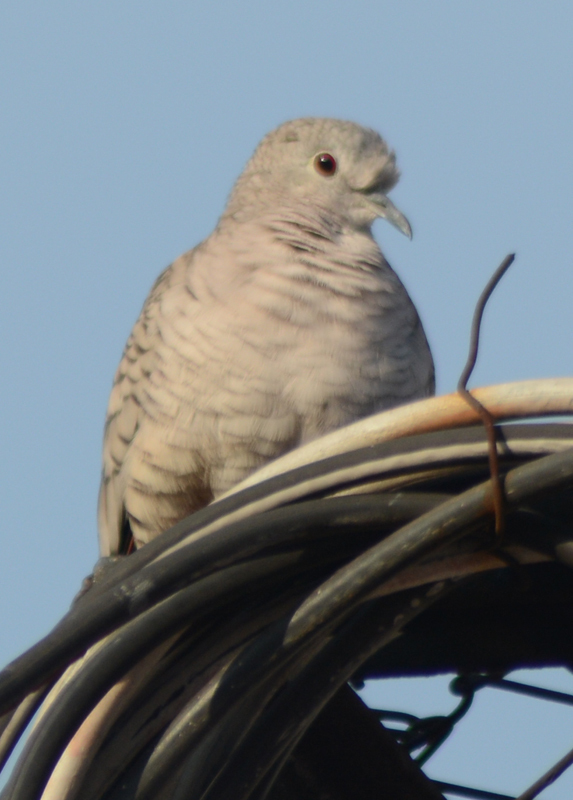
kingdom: Animalia
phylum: Chordata
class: Aves
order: Columbiformes
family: Columbidae
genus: Columbina
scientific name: Columbina inca
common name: Inca dove
